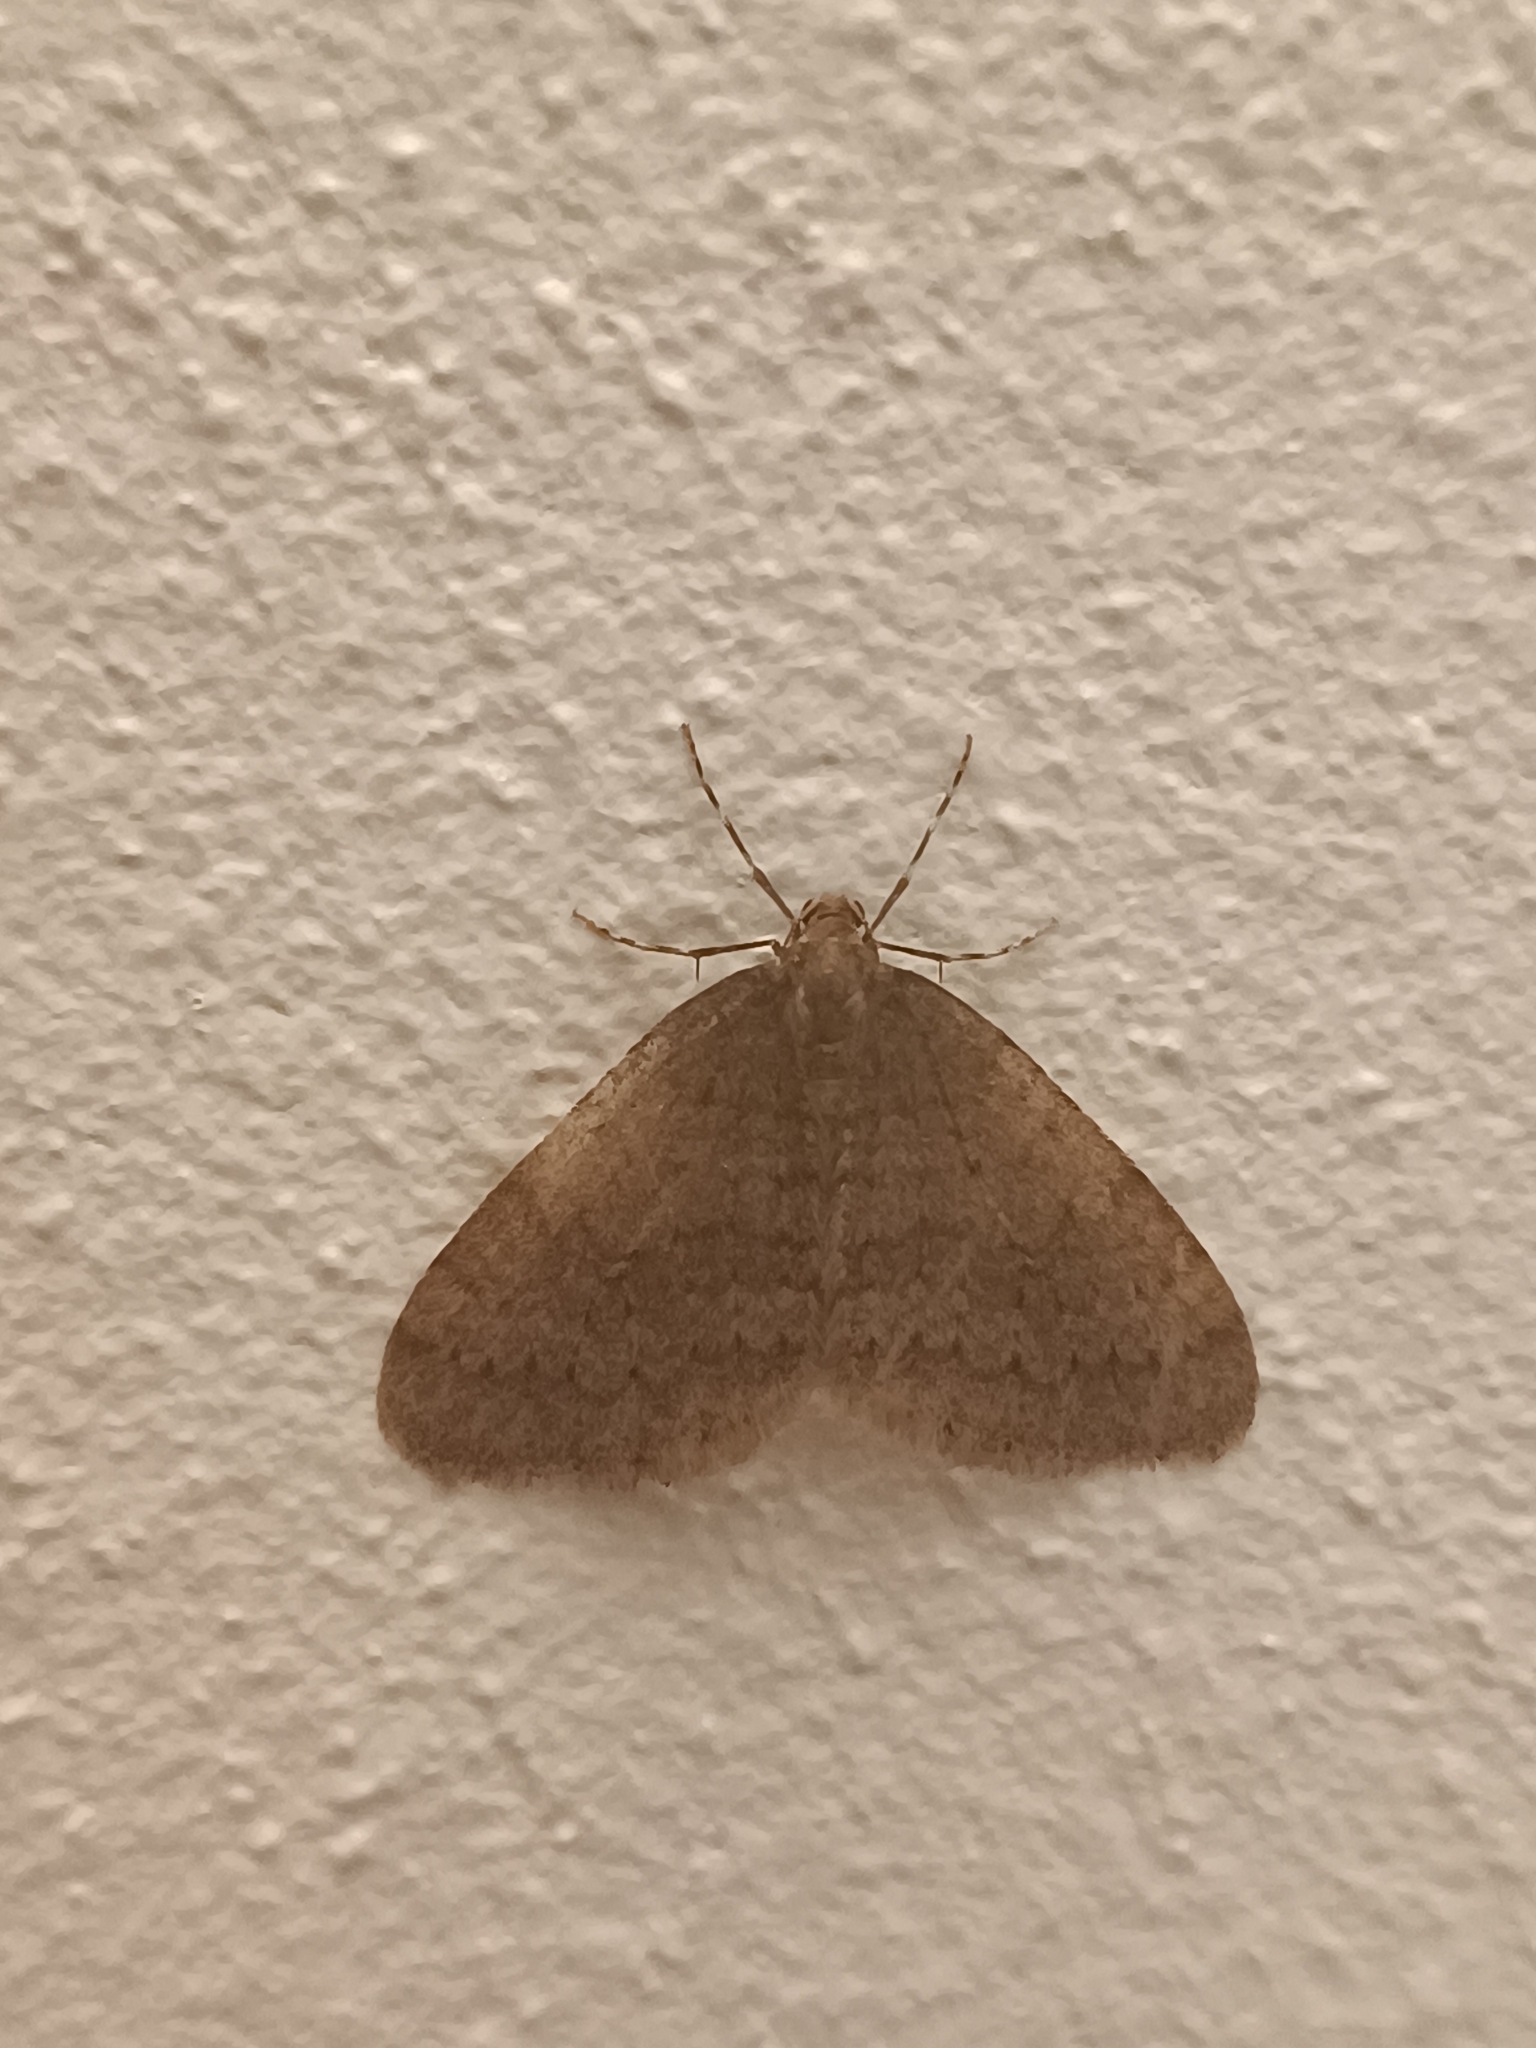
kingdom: Animalia
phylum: Arthropoda
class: Insecta
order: Lepidoptera
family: Geometridae
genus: Operophtera
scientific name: Operophtera brumata
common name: Winter moth
